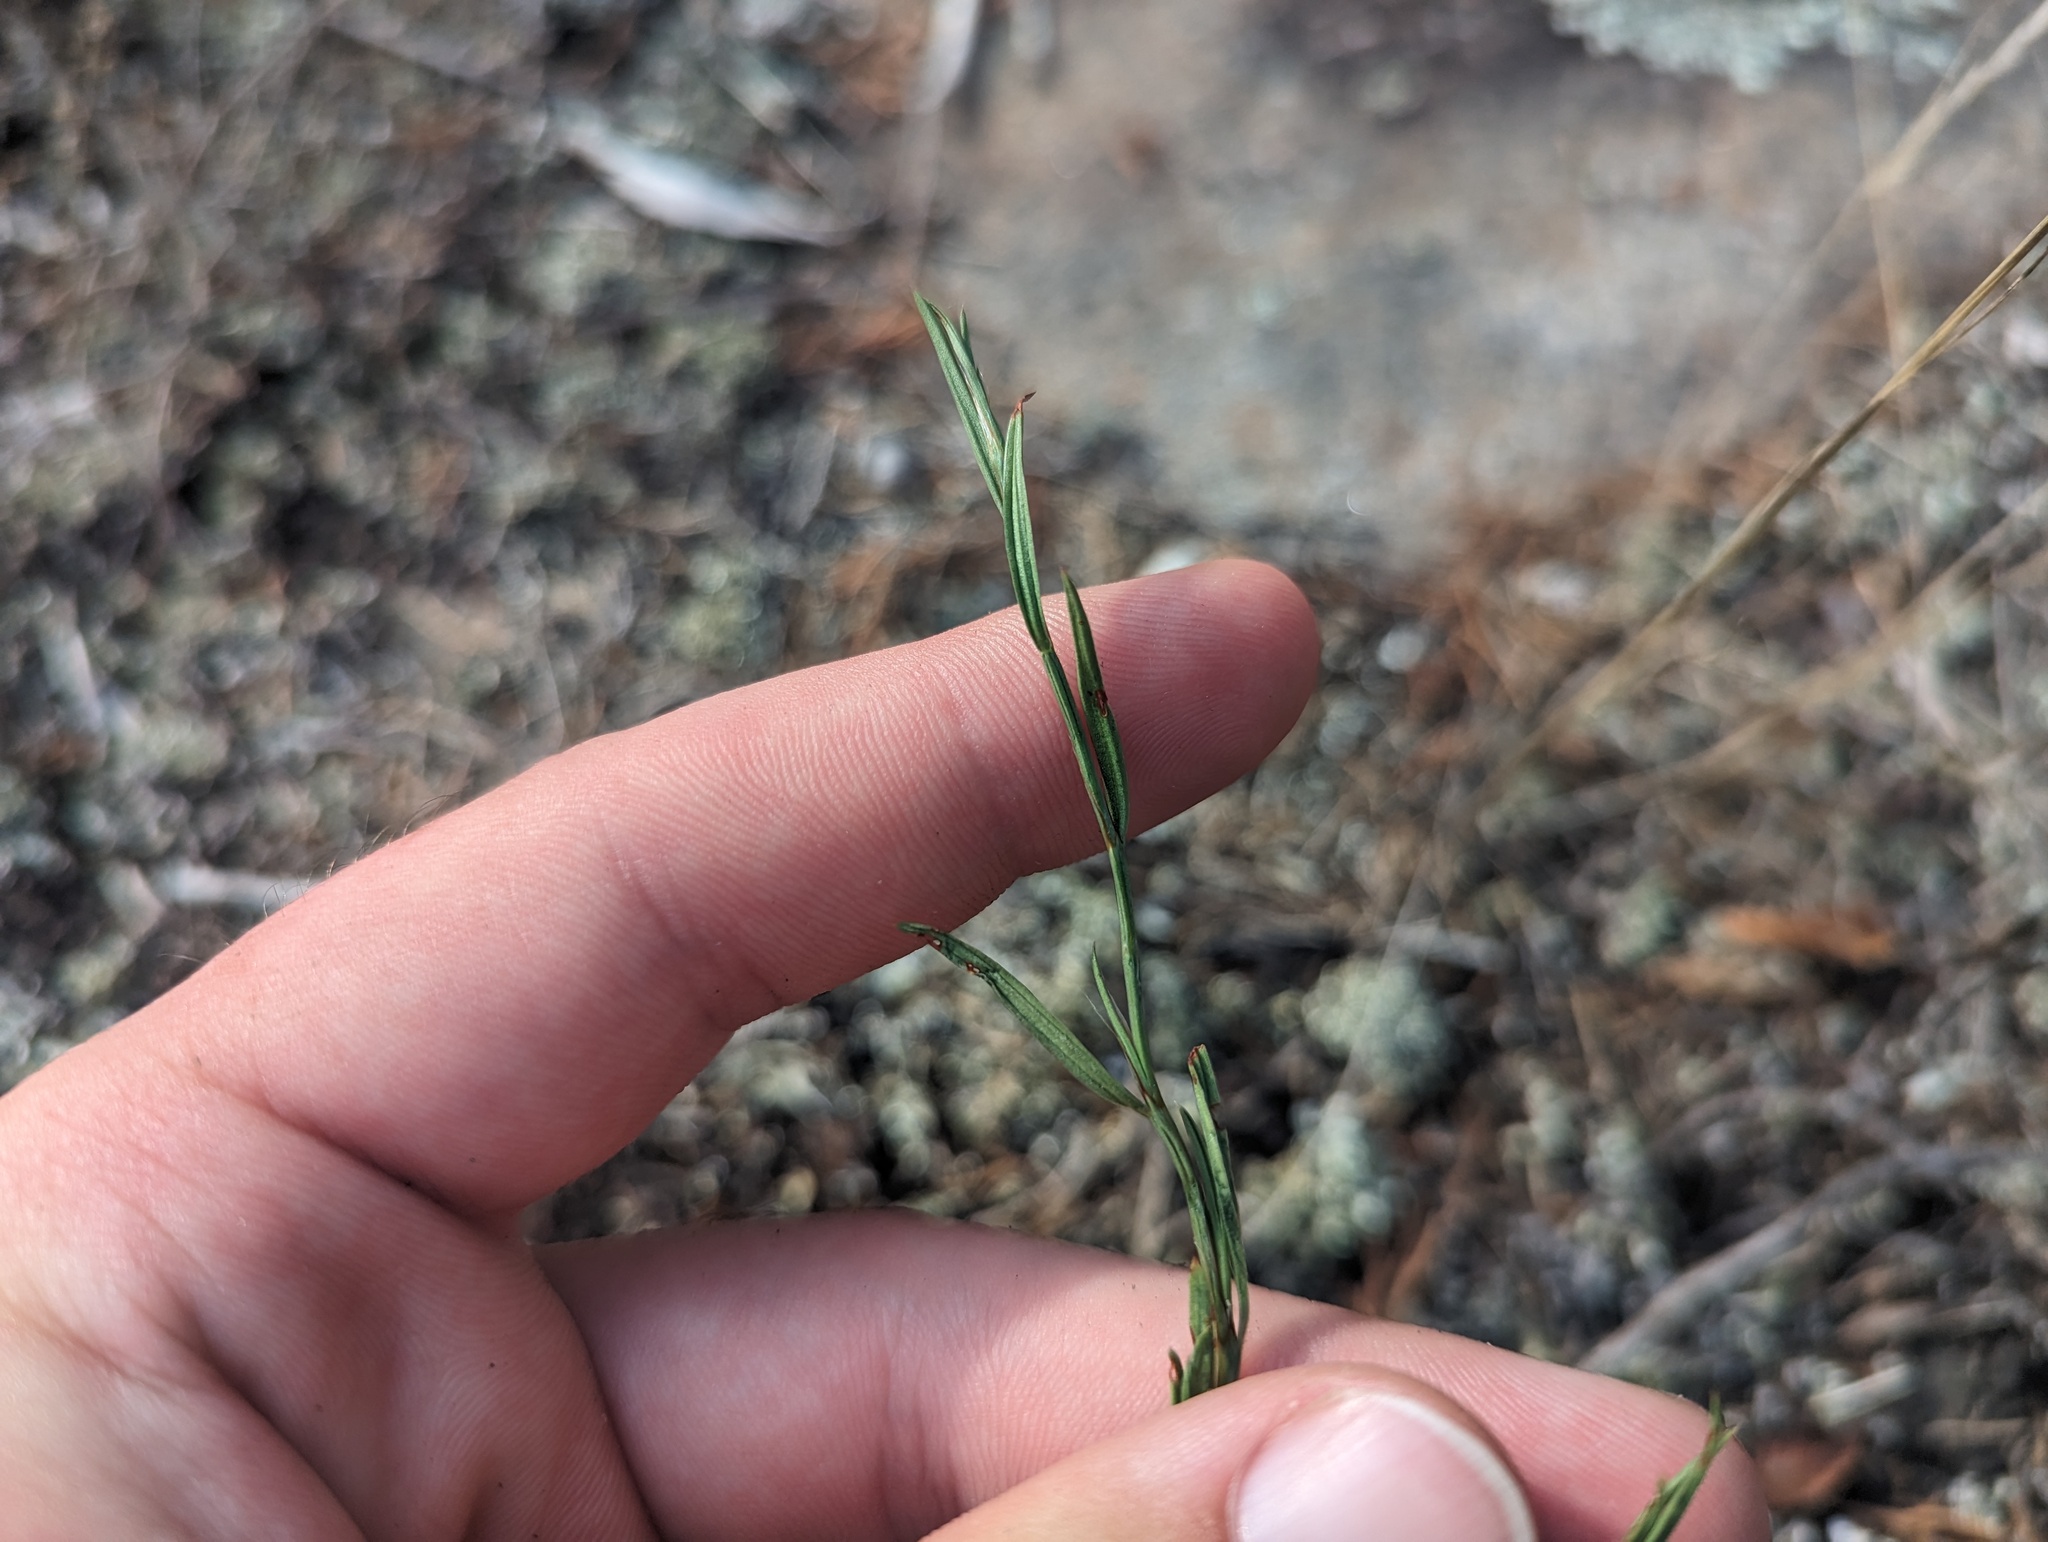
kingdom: Plantae
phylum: Tracheophyta
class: Magnoliopsida
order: Caryophyllales
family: Polygonaceae
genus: Polygonum
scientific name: Polygonum tenue
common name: Pleat-leaved knotweed
